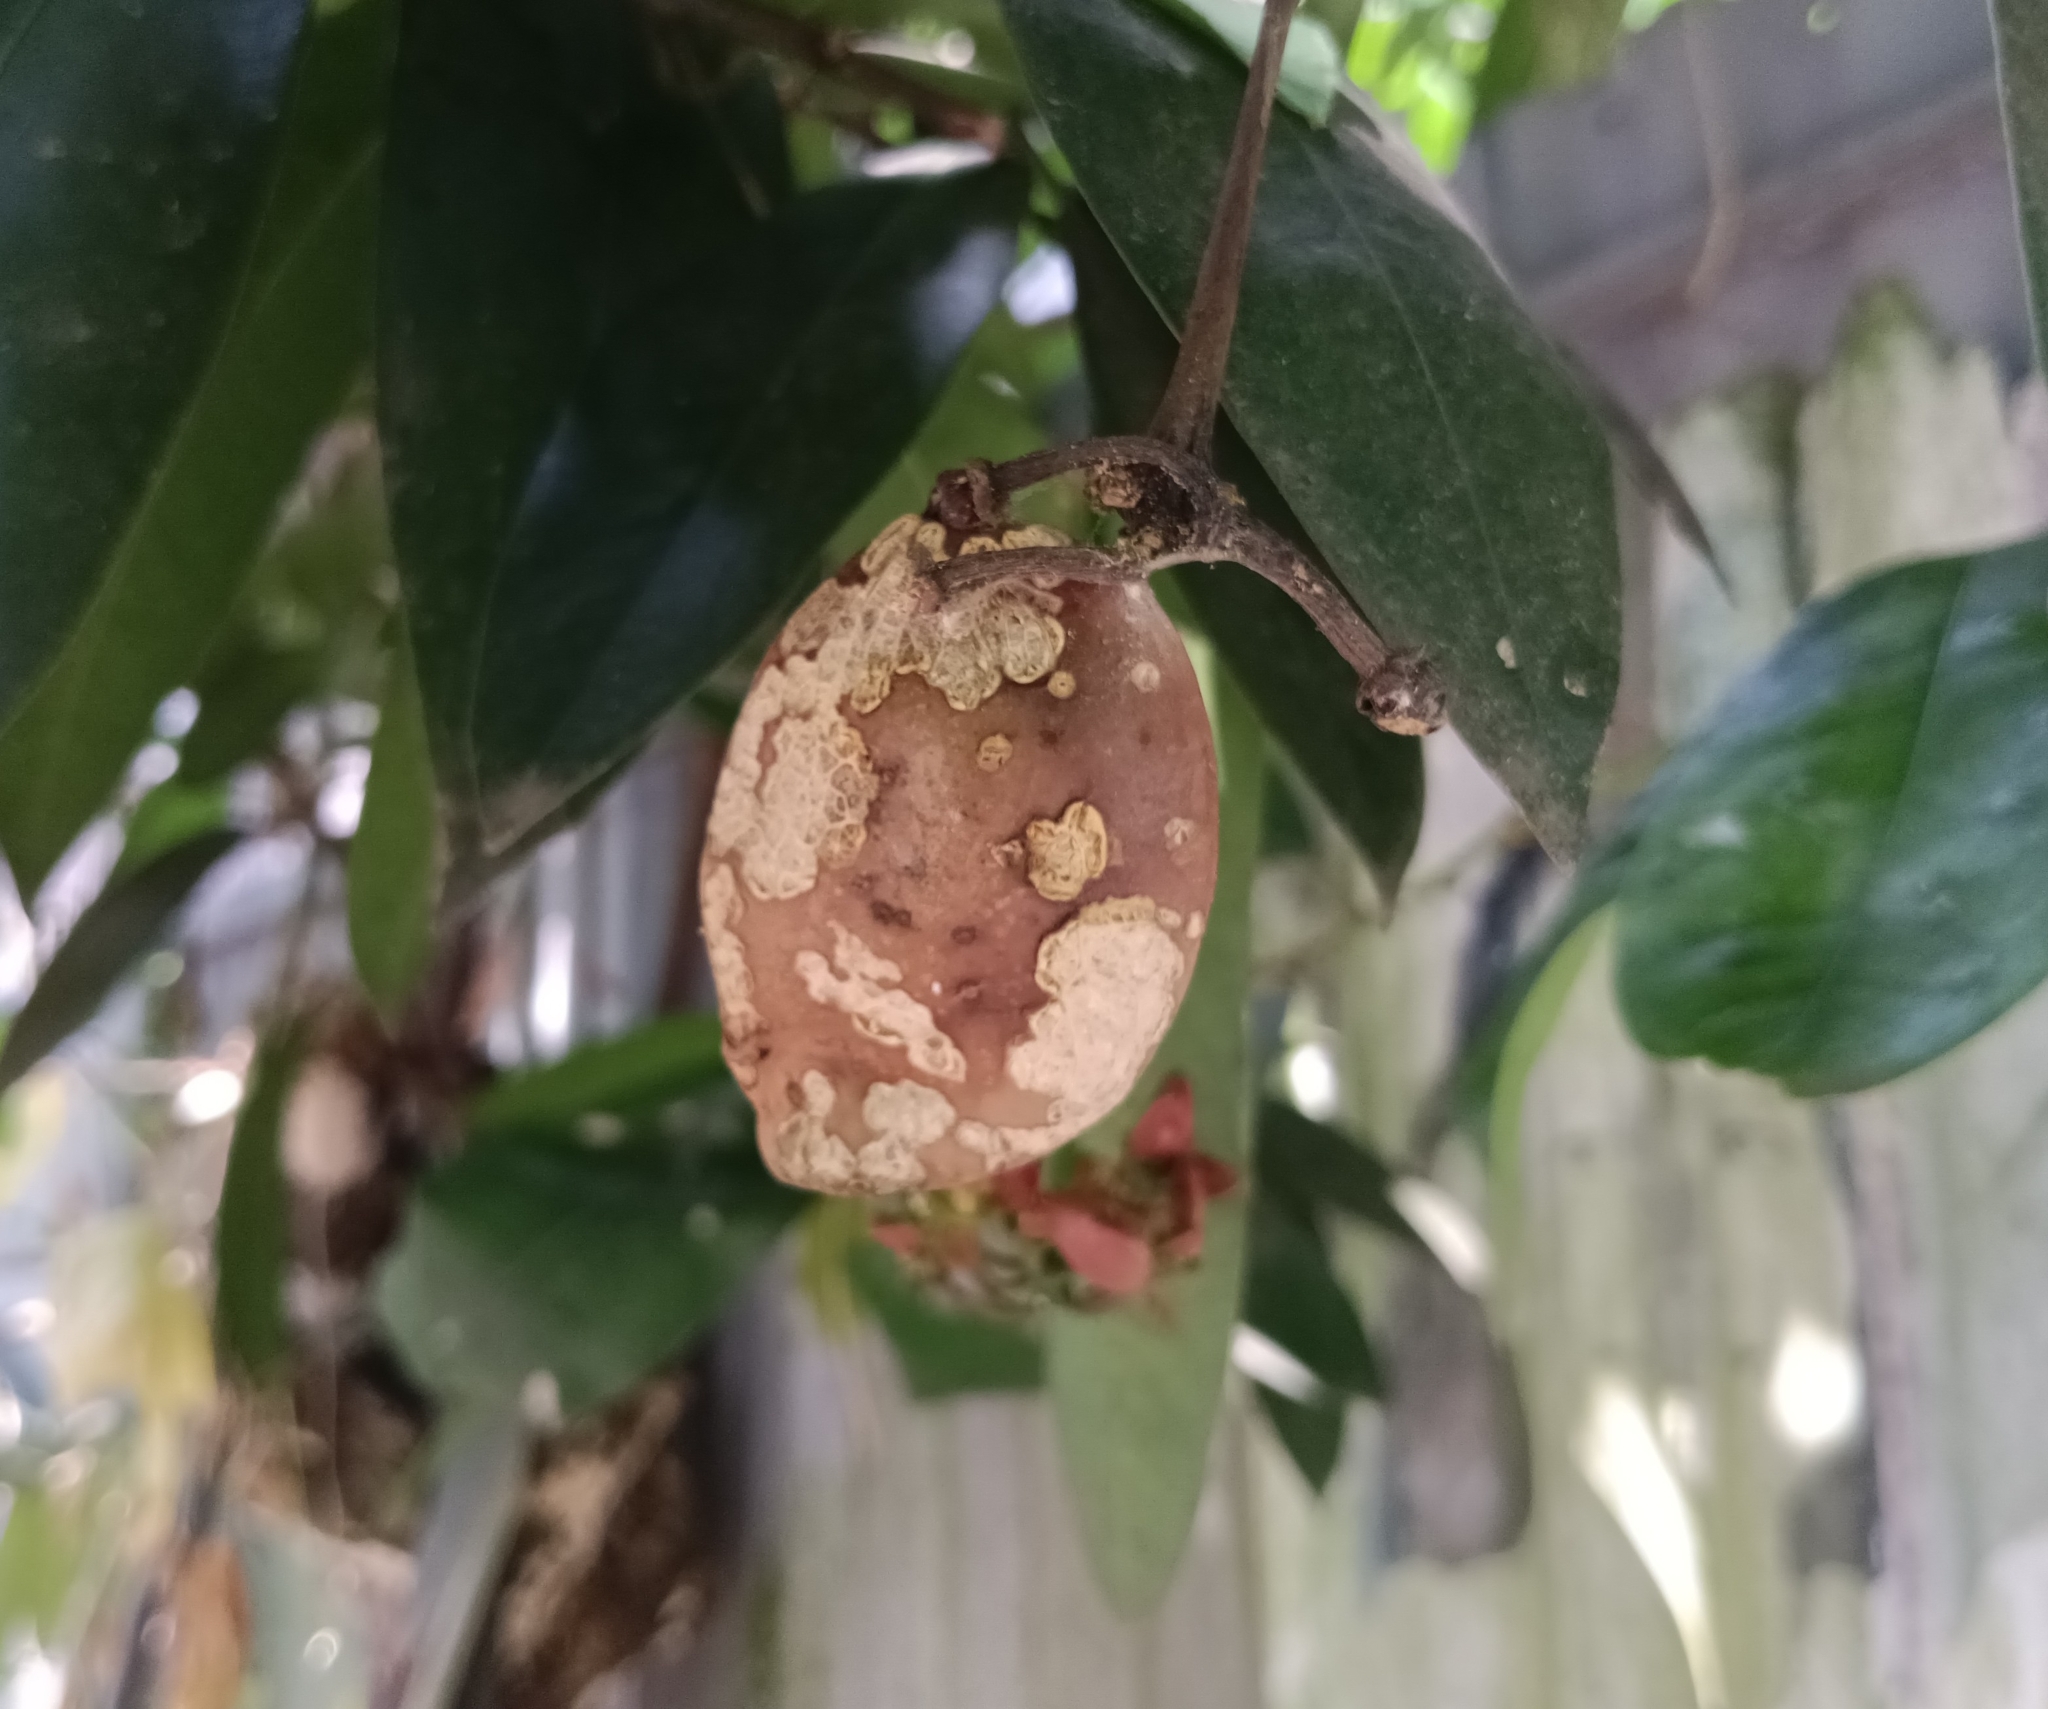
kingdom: Plantae
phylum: Tracheophyta
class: Magnoliopsida
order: Sapindales
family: Simaroubaceae
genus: Samadera
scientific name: Samadera indica
